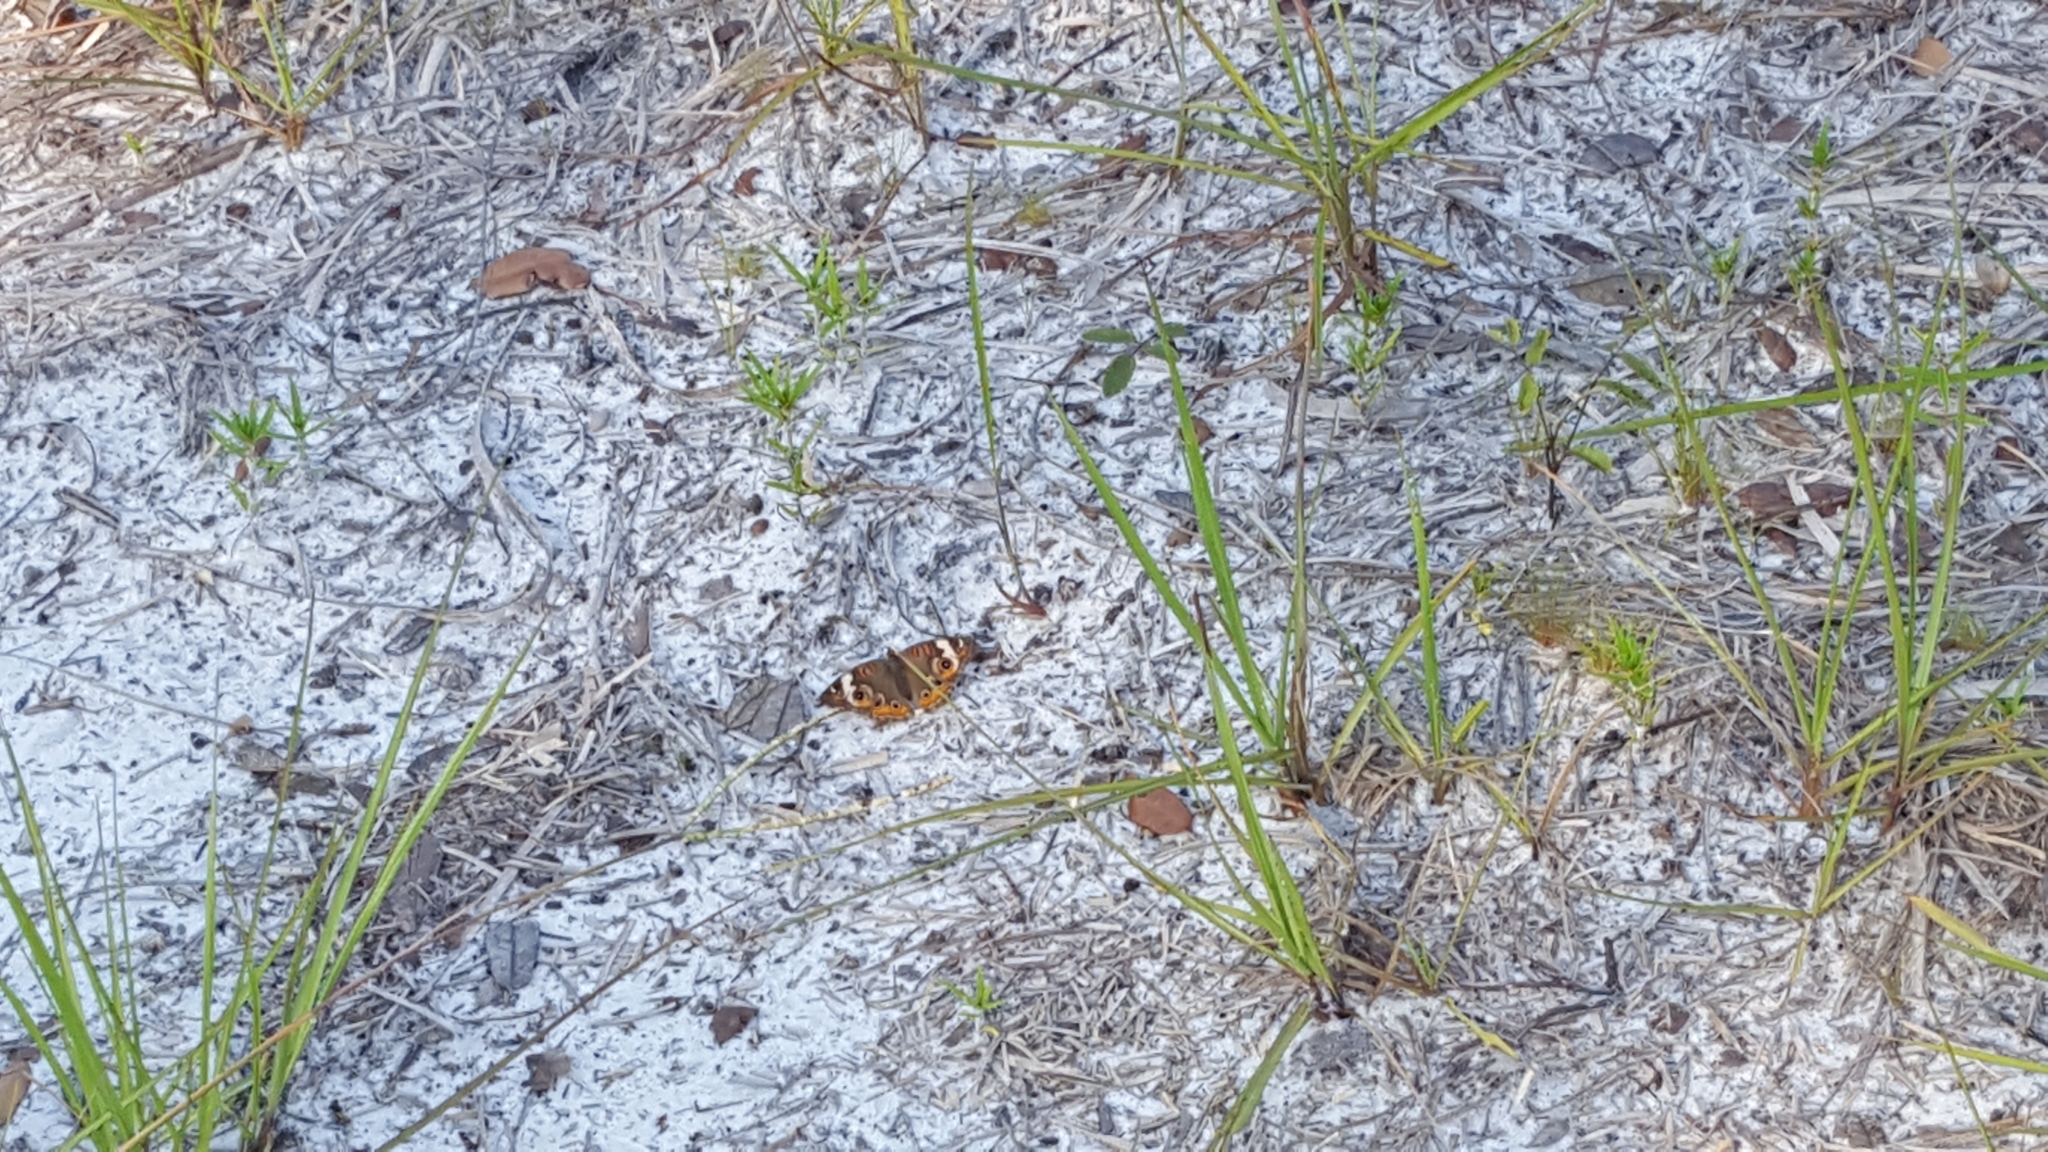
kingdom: Animalia
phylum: Arthropoda
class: Insecta
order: Lepidoptera
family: Nymphalidae
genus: Junonia
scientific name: Junonia coenia
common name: Common buckeye
